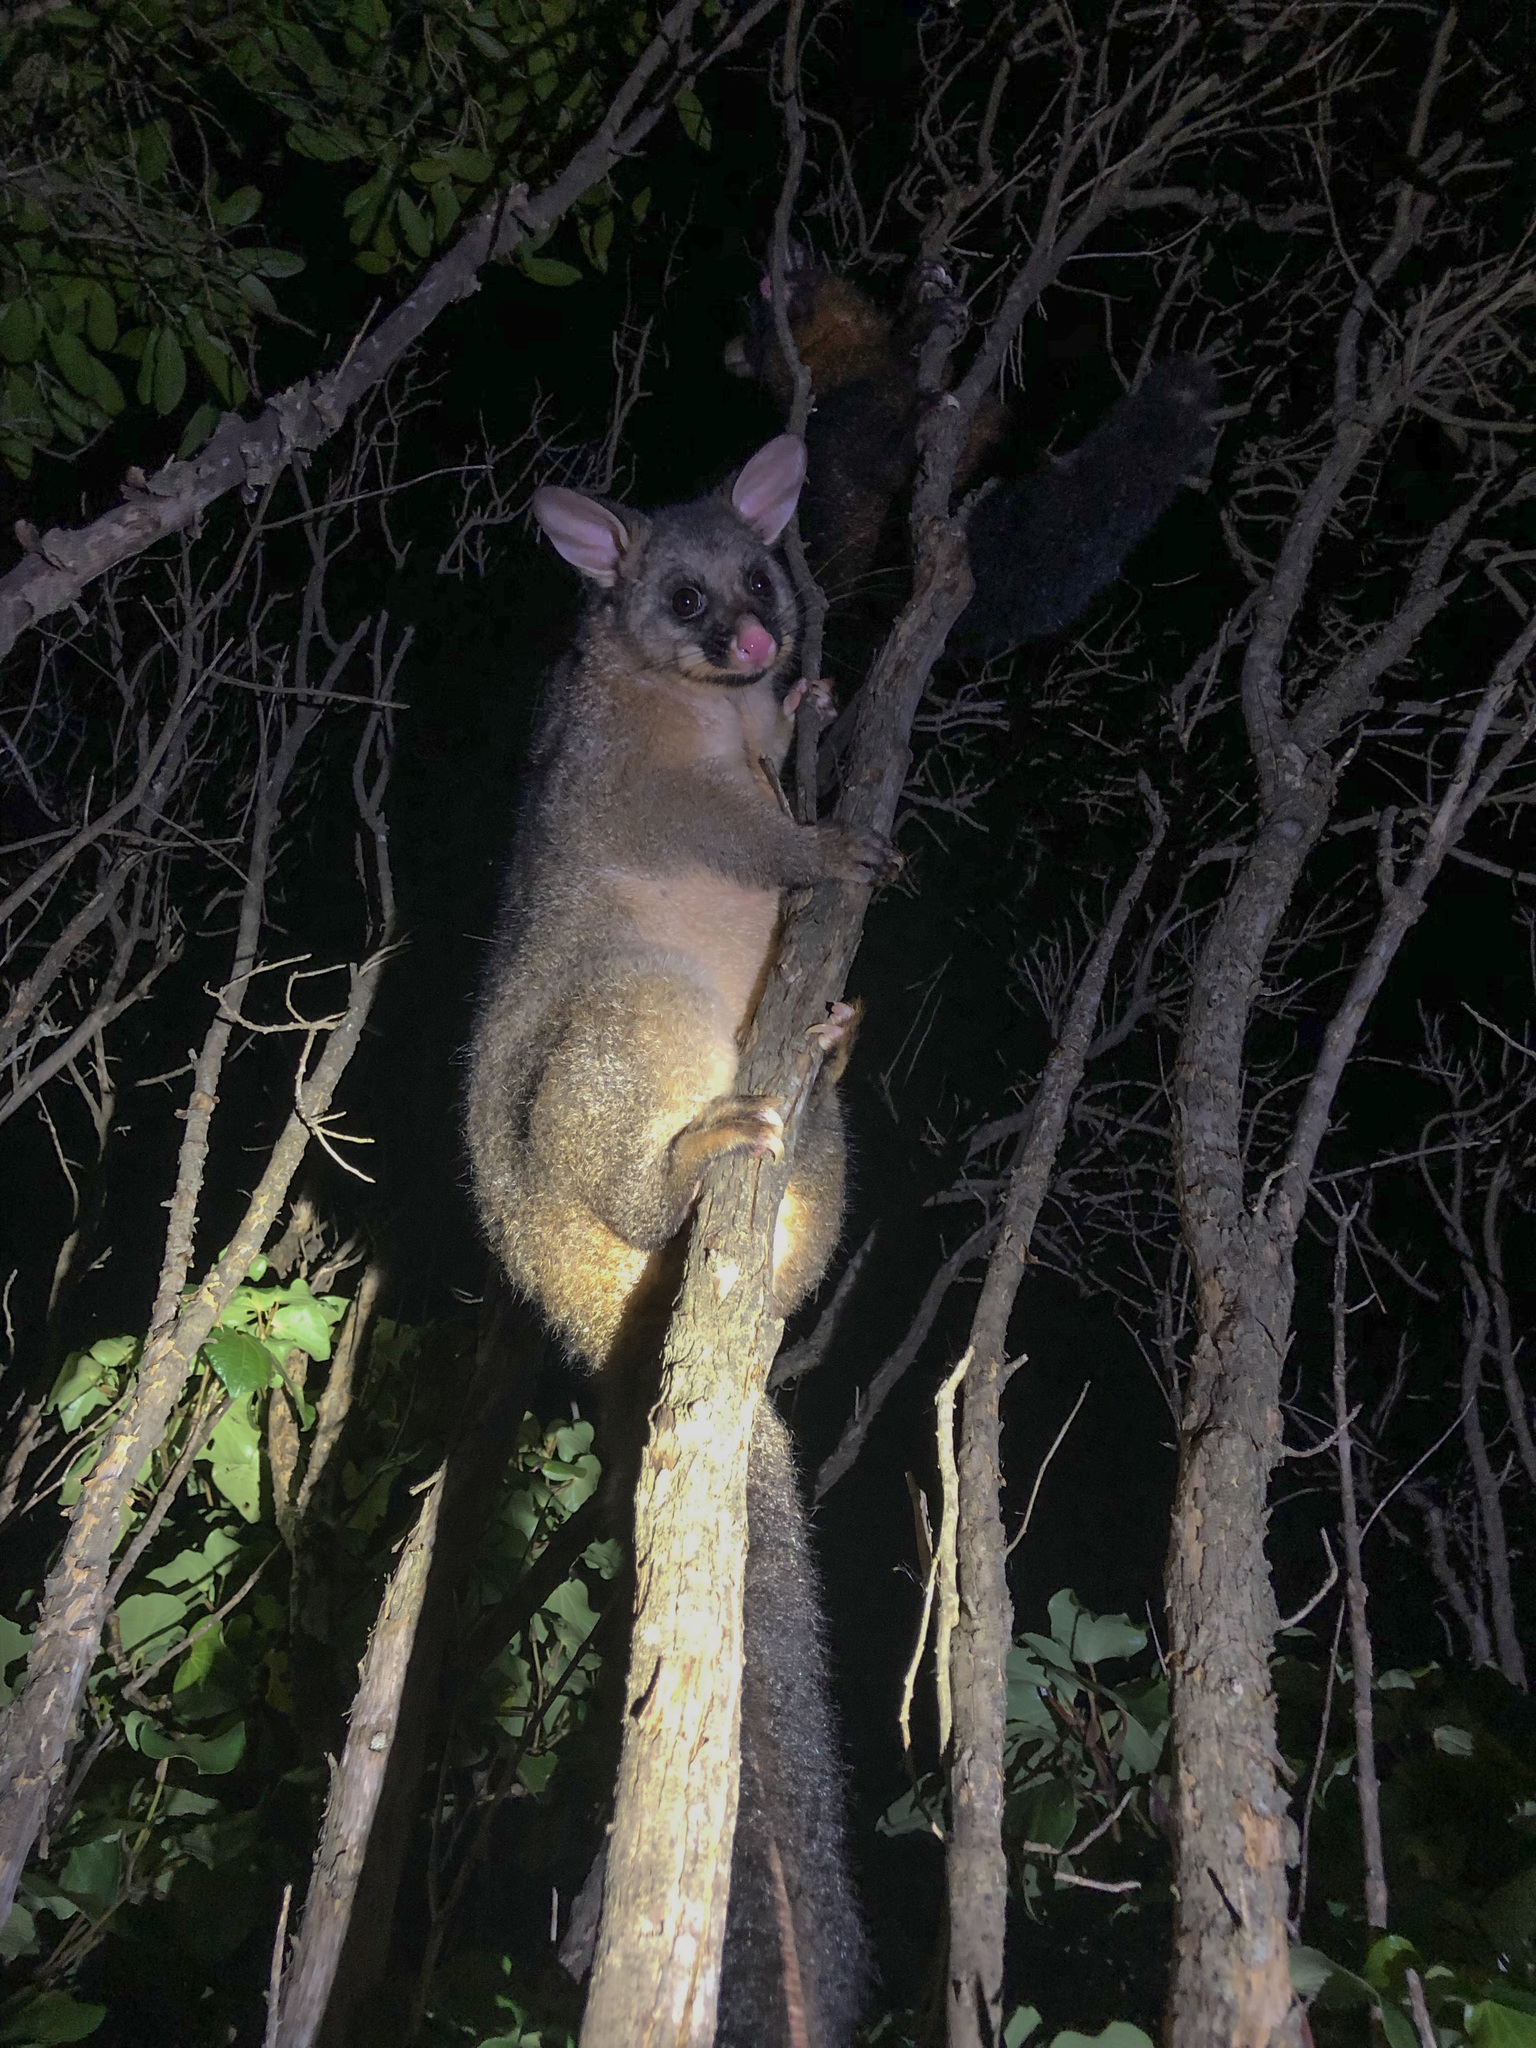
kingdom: Animalia
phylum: Chordata
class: Mammalia
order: Diprotodontia
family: Phalangeridae
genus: Trichosurus
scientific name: Trichosurus vulpecula
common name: Common brushtail
